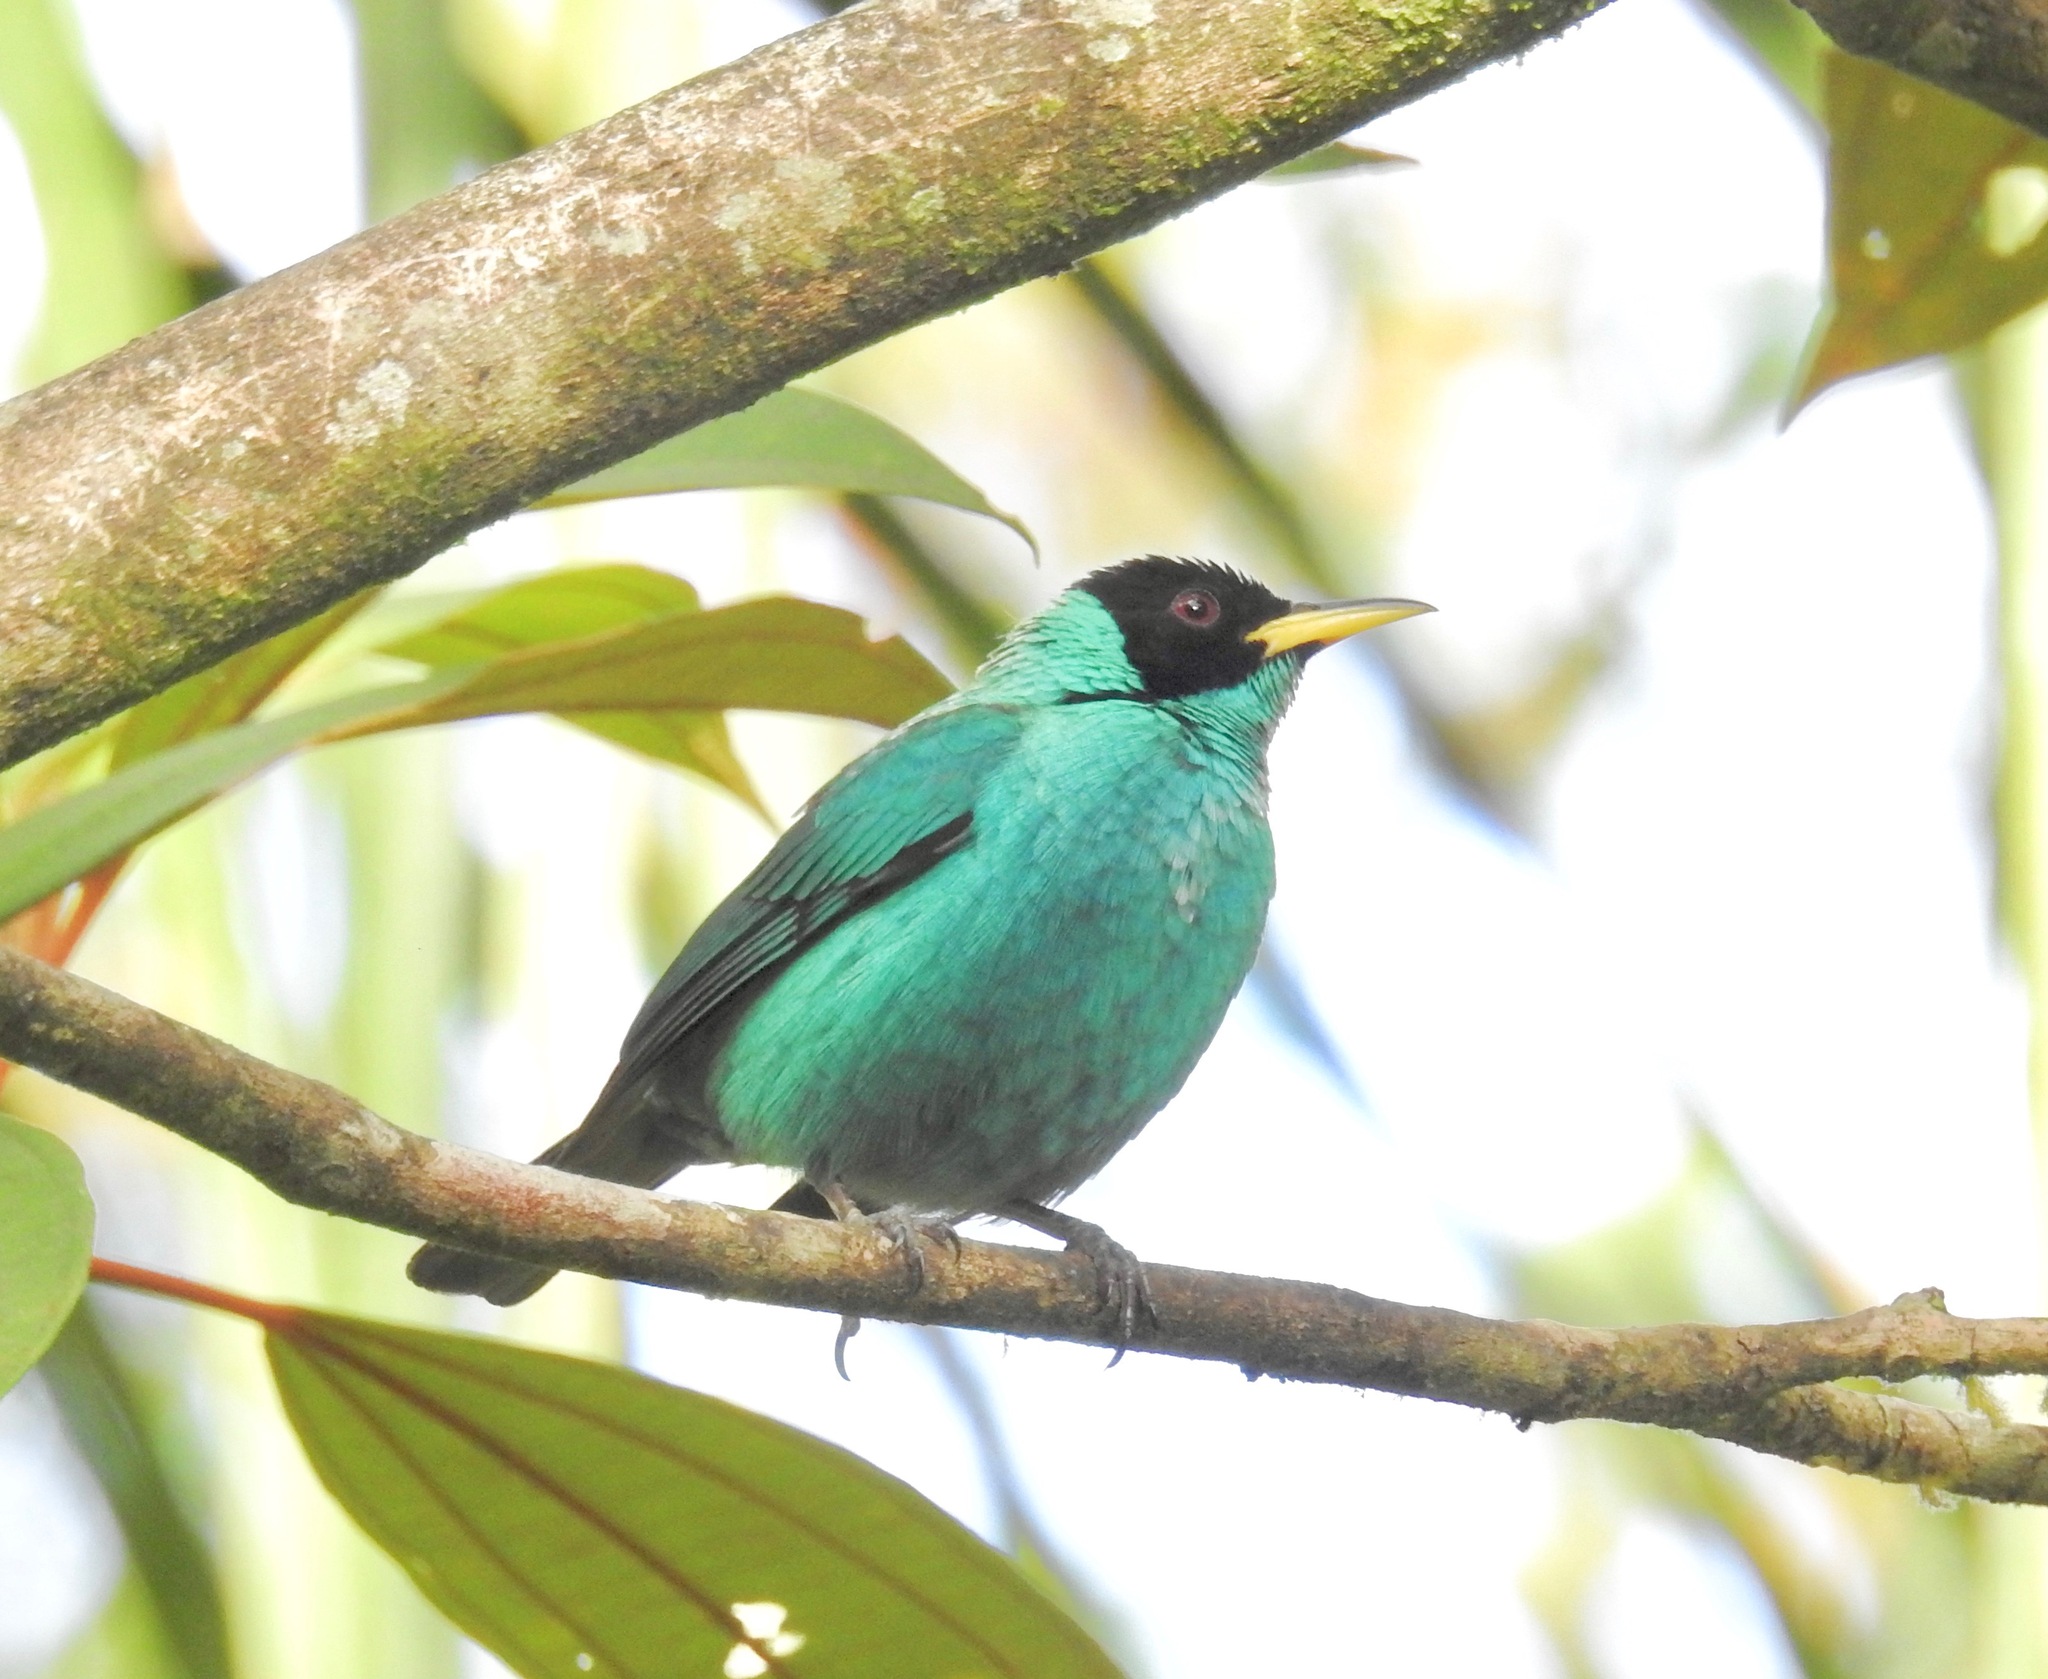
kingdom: Animalia
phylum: Chordata
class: Aves
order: Passeriformes
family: Thraupidae
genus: Chlorophanes
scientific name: Chlorophanes spiza
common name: Green honeycreeper
